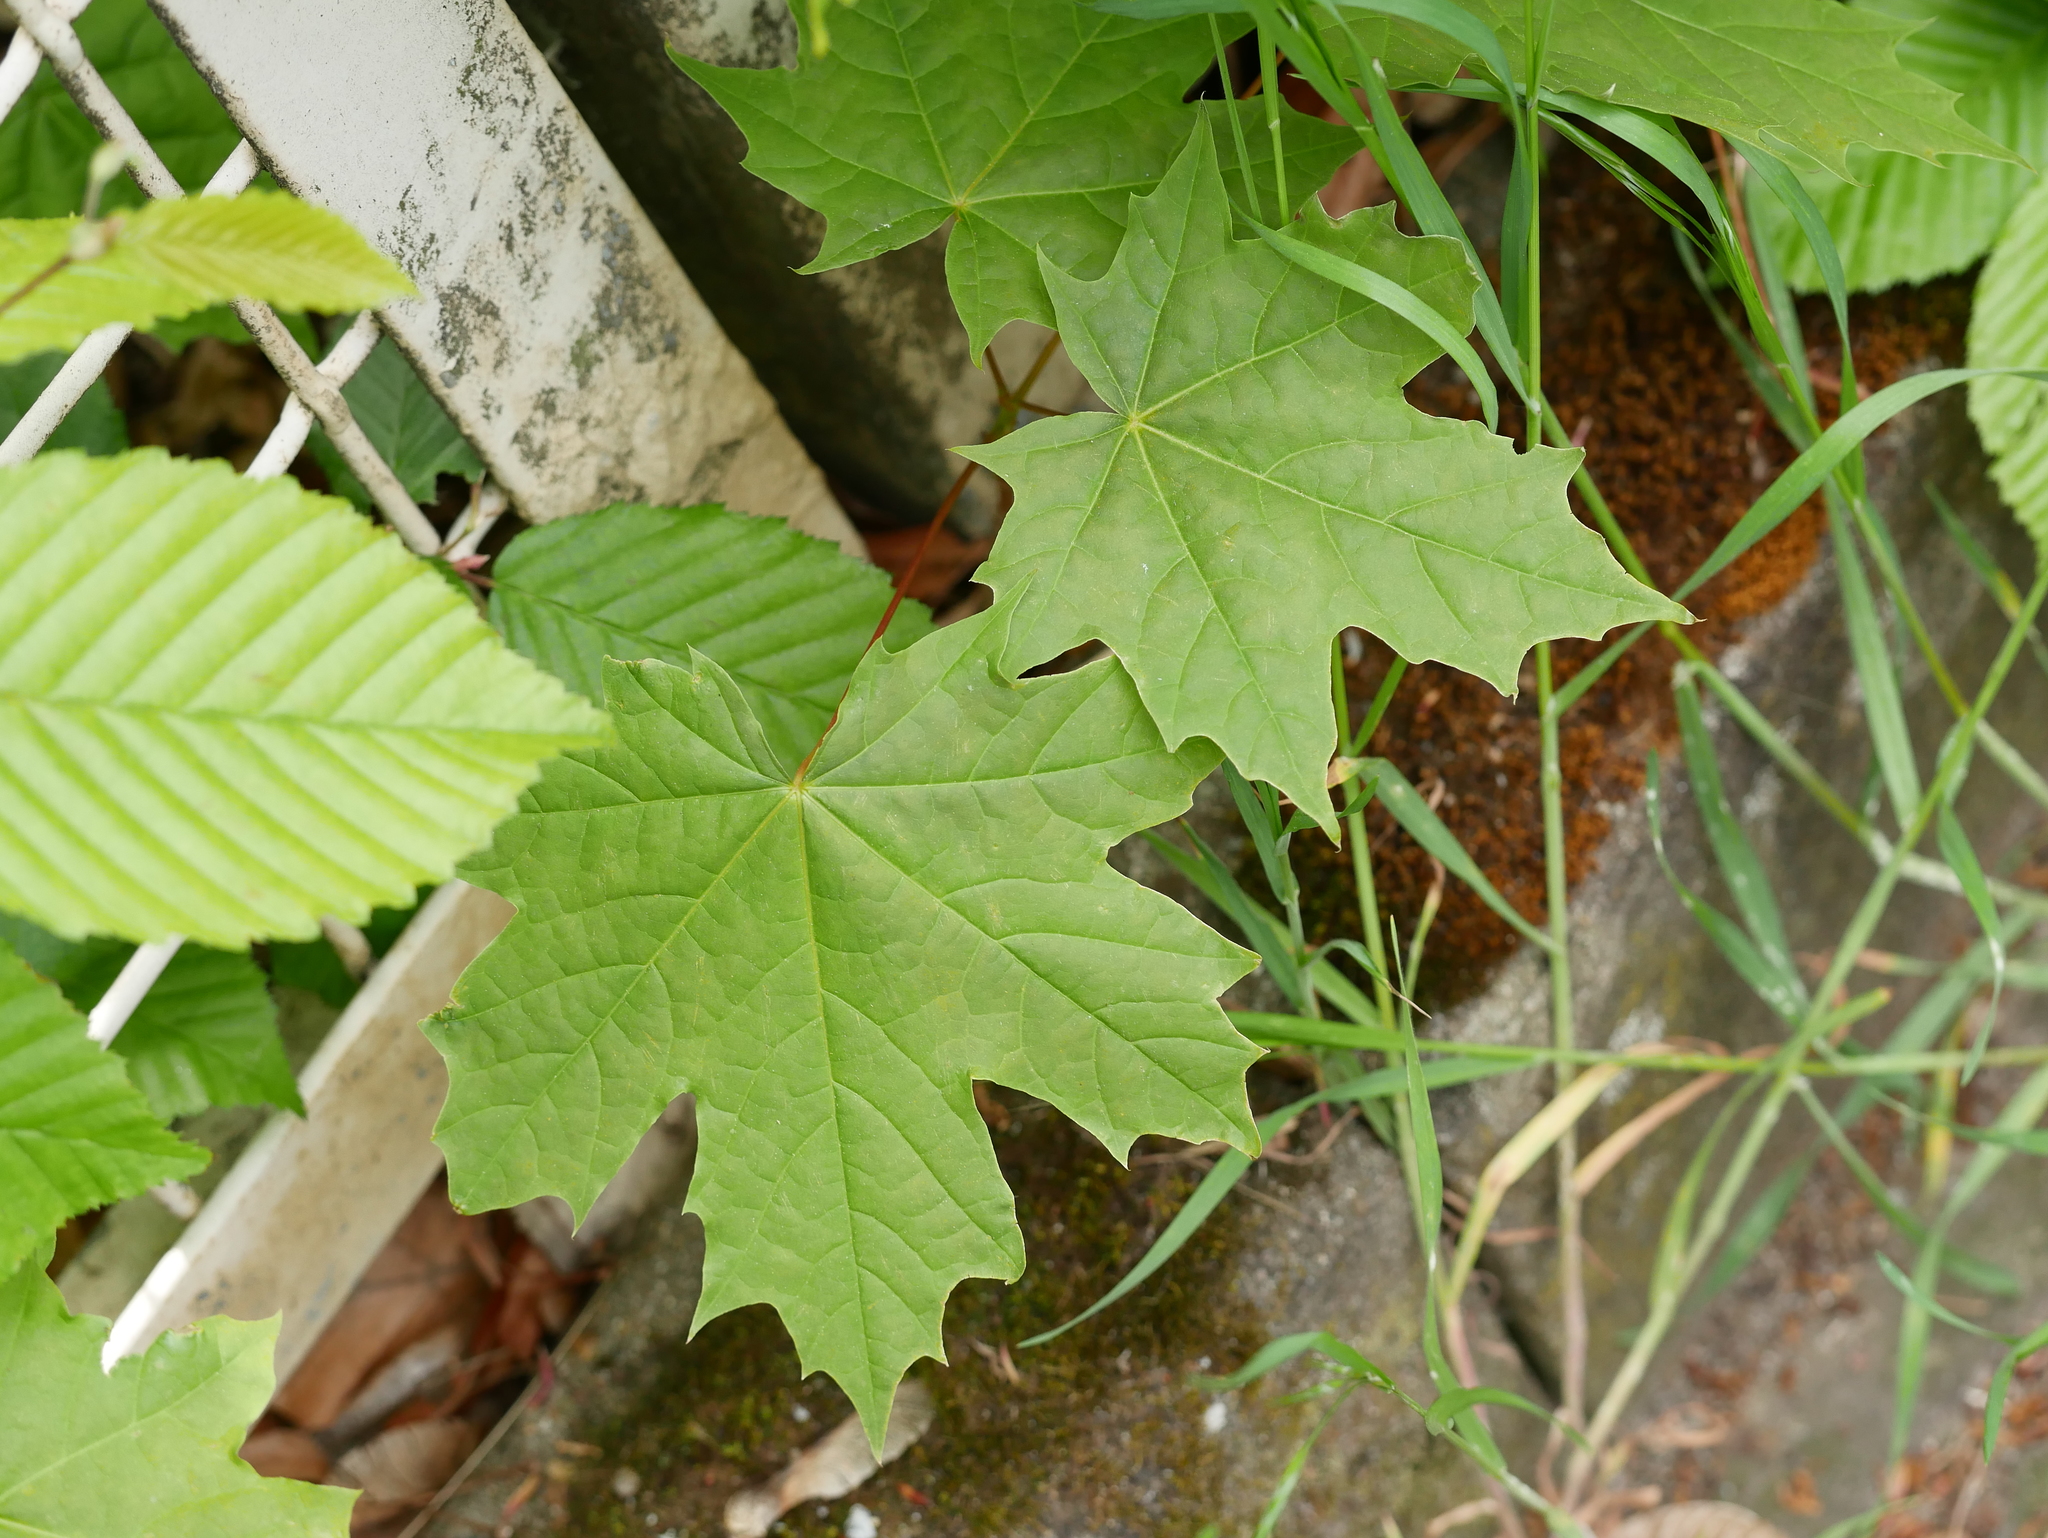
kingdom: Plantae
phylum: Tracheophyta
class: Magnoliopsida
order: Sapindales
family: Sapindaceae
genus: Acer
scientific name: Acer platanoides
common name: Norway maple
